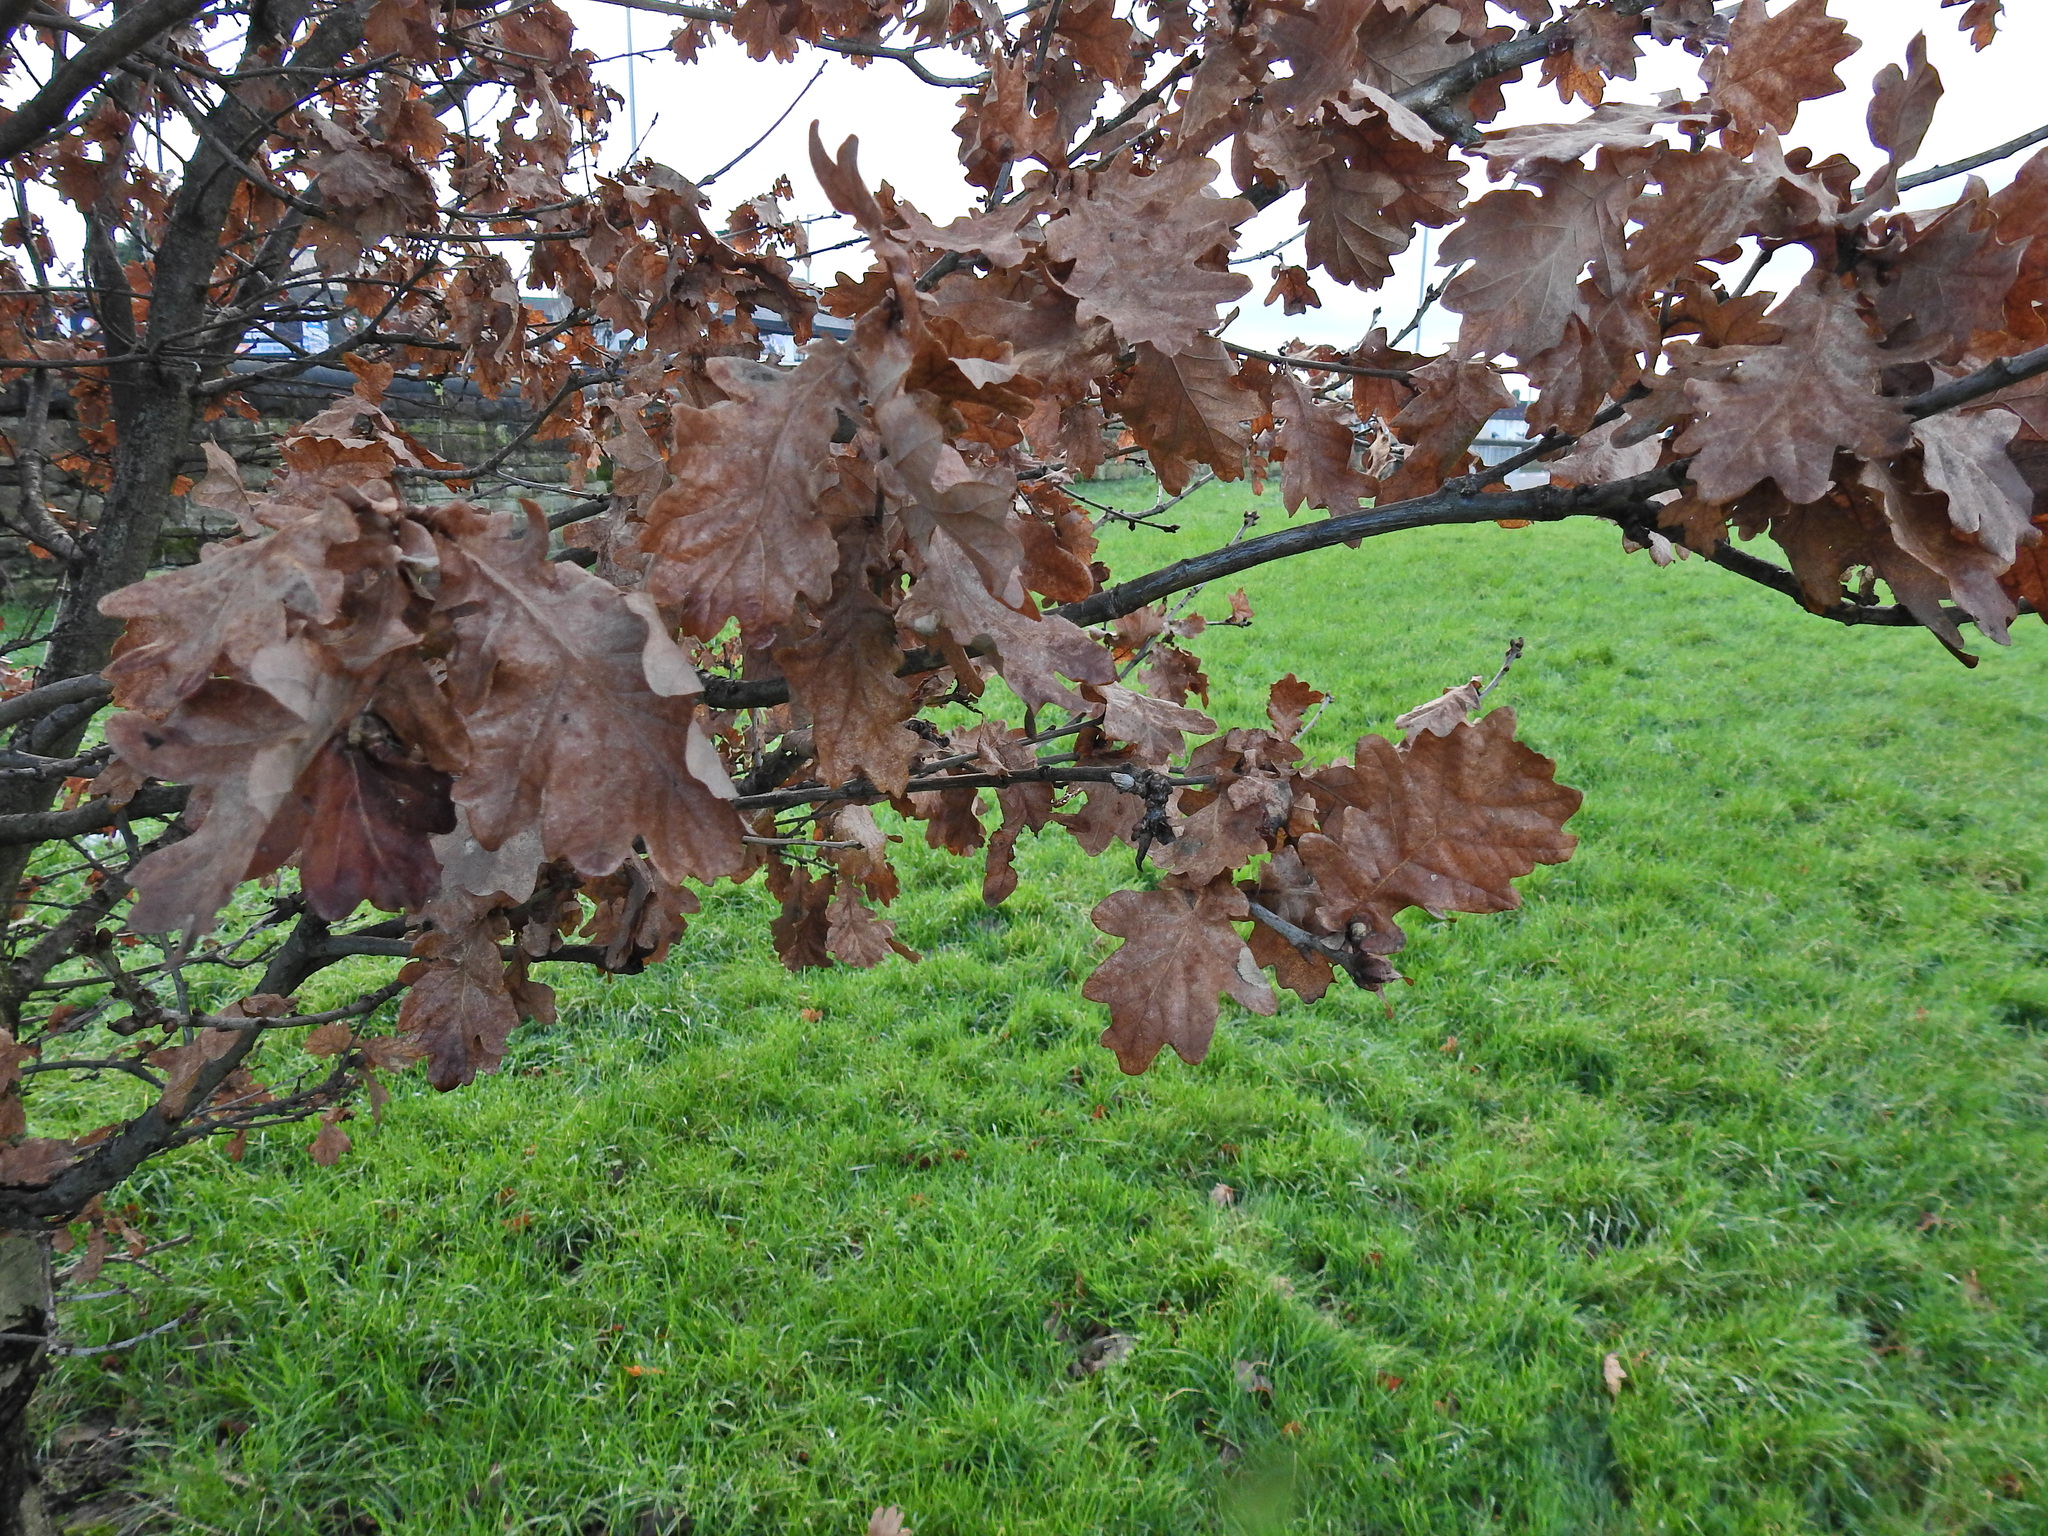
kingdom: Plantae
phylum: Tracheophyta
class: Magnoliopsida
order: Fagales
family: Fagaceae
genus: Quercus
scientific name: Quercus robur
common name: Pedunculate oak
